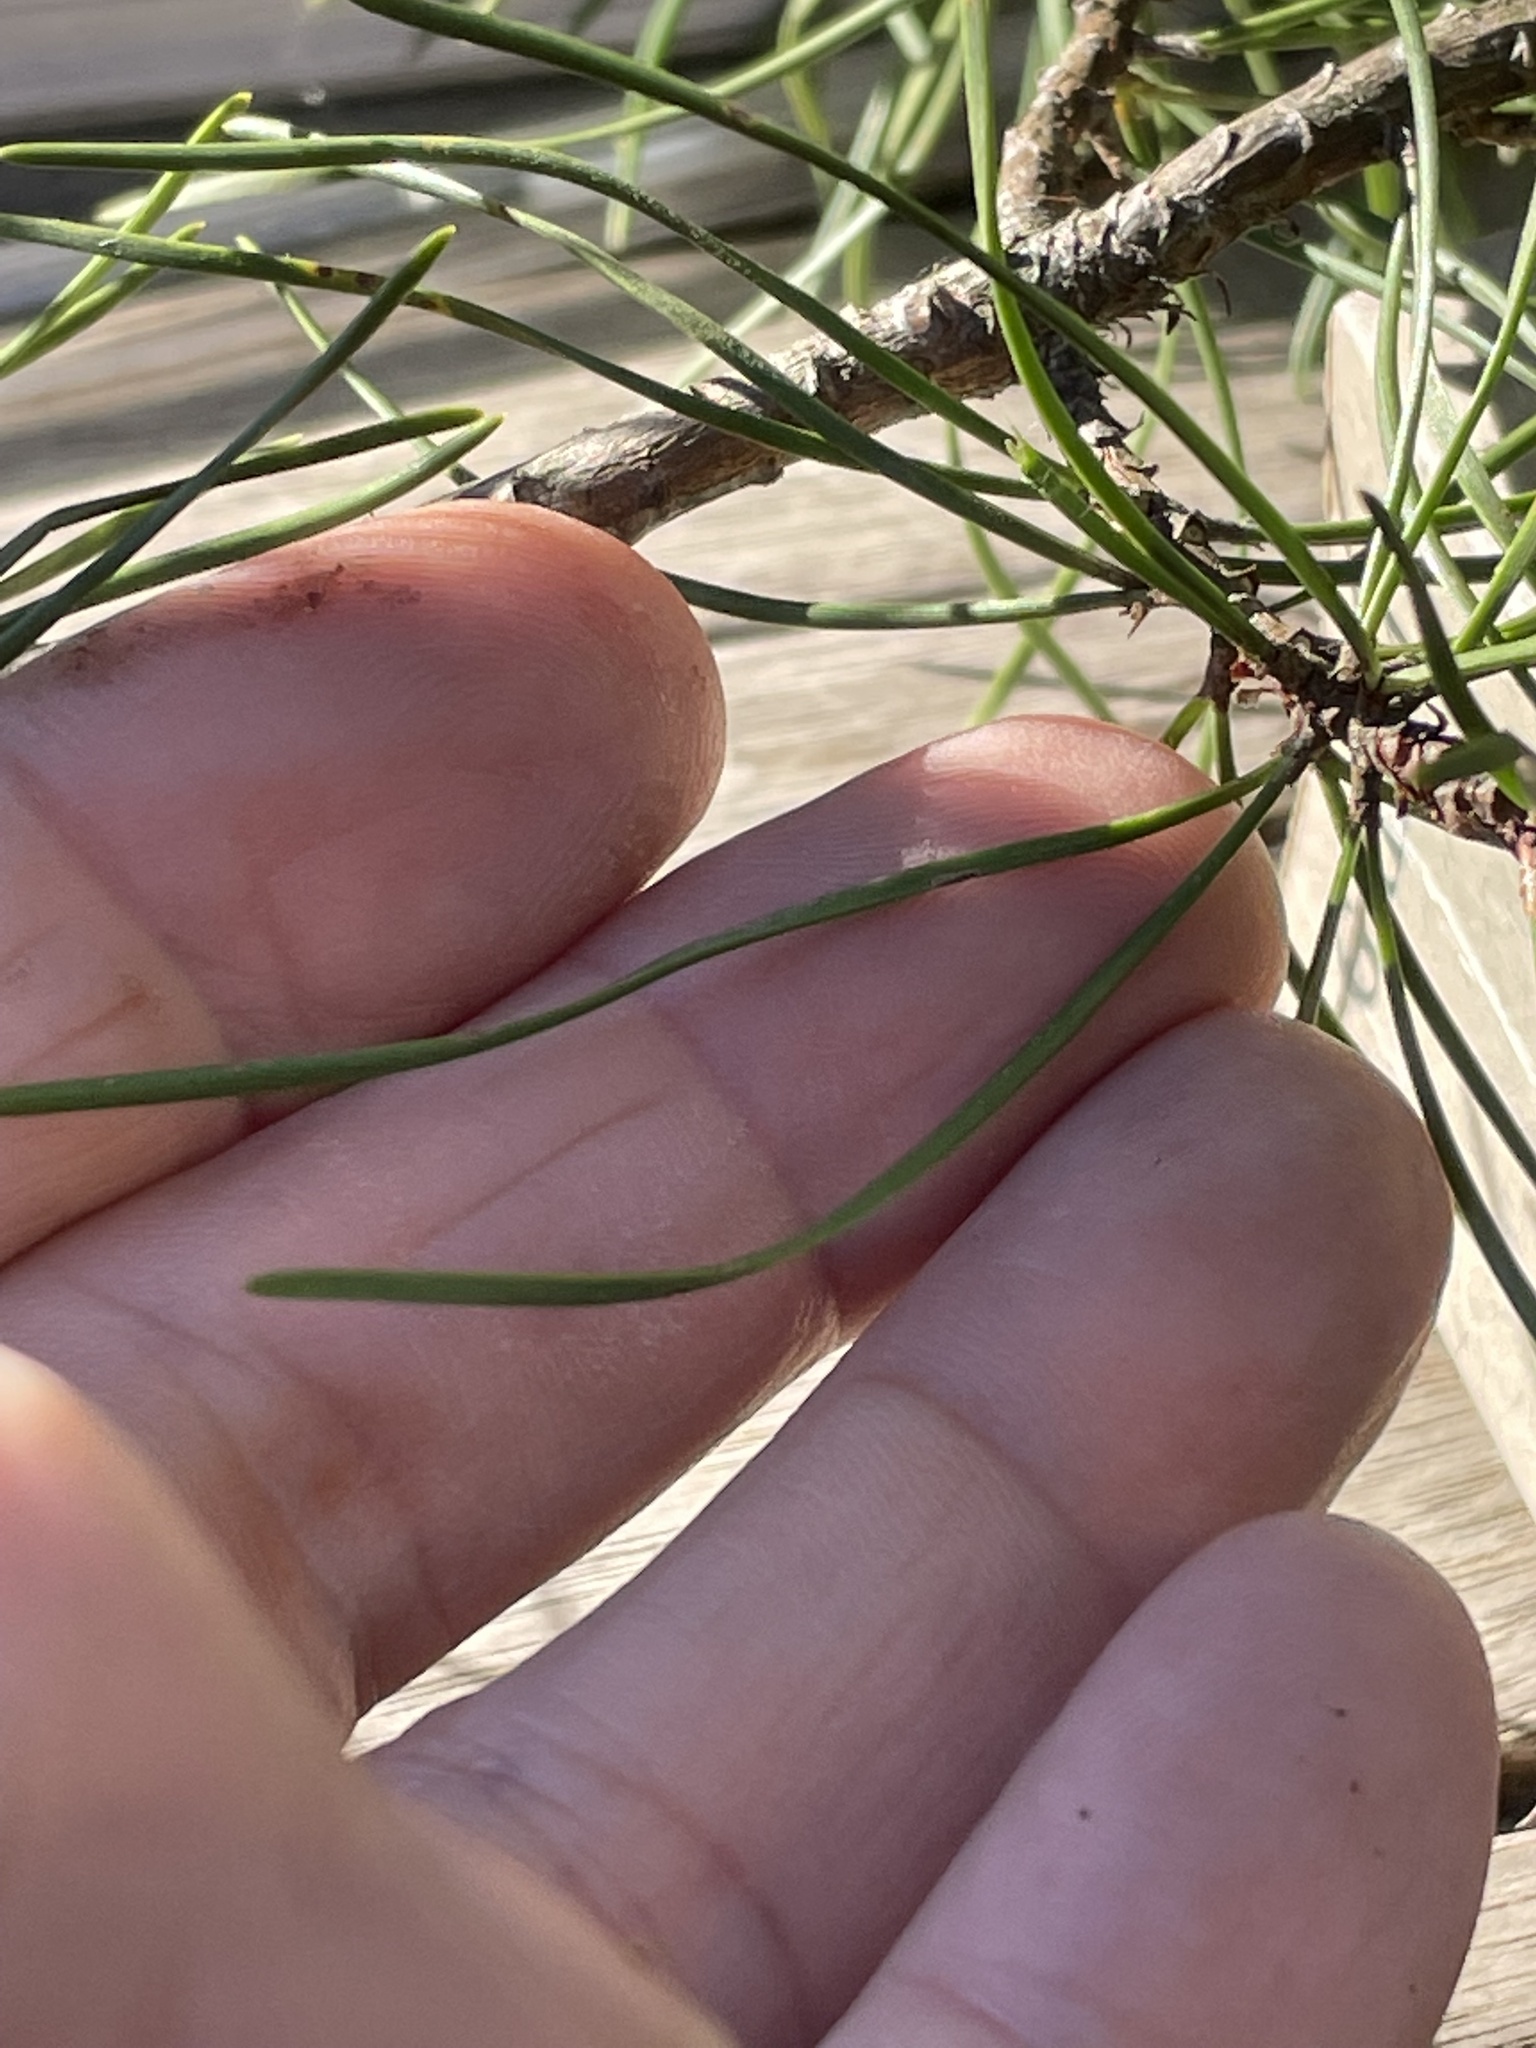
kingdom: Plantae
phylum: Tracheophyta
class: Pinopsida
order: Pinales
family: Pinaceae
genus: Pinus
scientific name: Pinus virginiana
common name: Scrub pine
